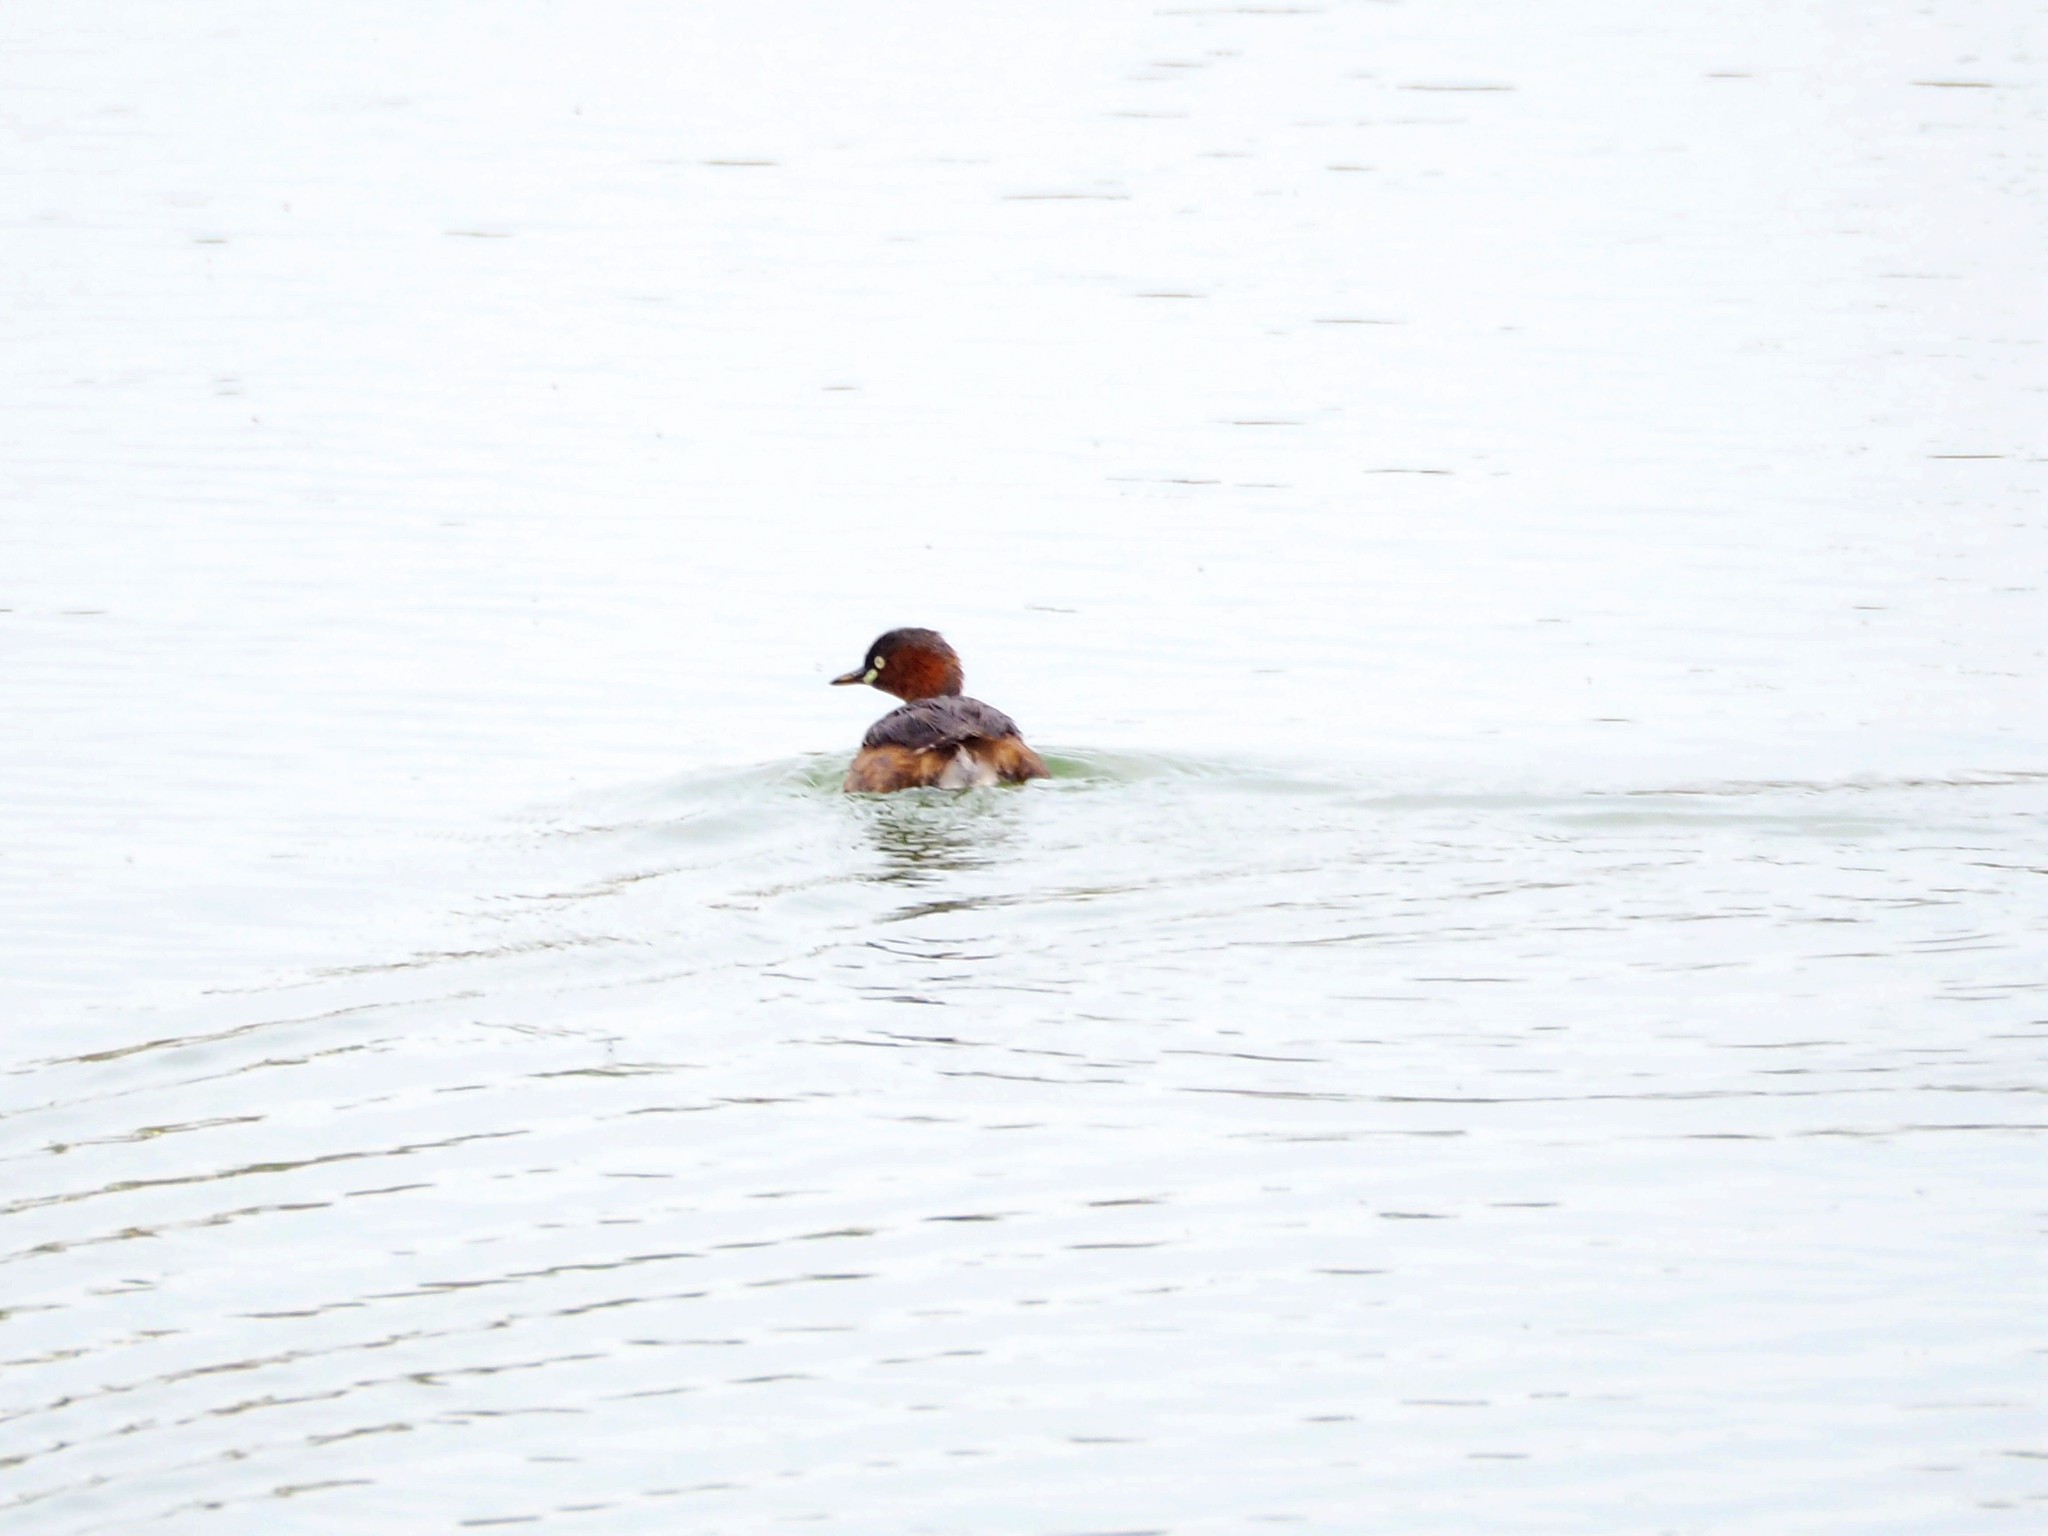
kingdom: Animalia
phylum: Chordata
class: Aves
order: Podicipediformes
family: Podicipedidae
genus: Tachybaptus
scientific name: Tachybaptus ruficollis
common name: Little grebe
